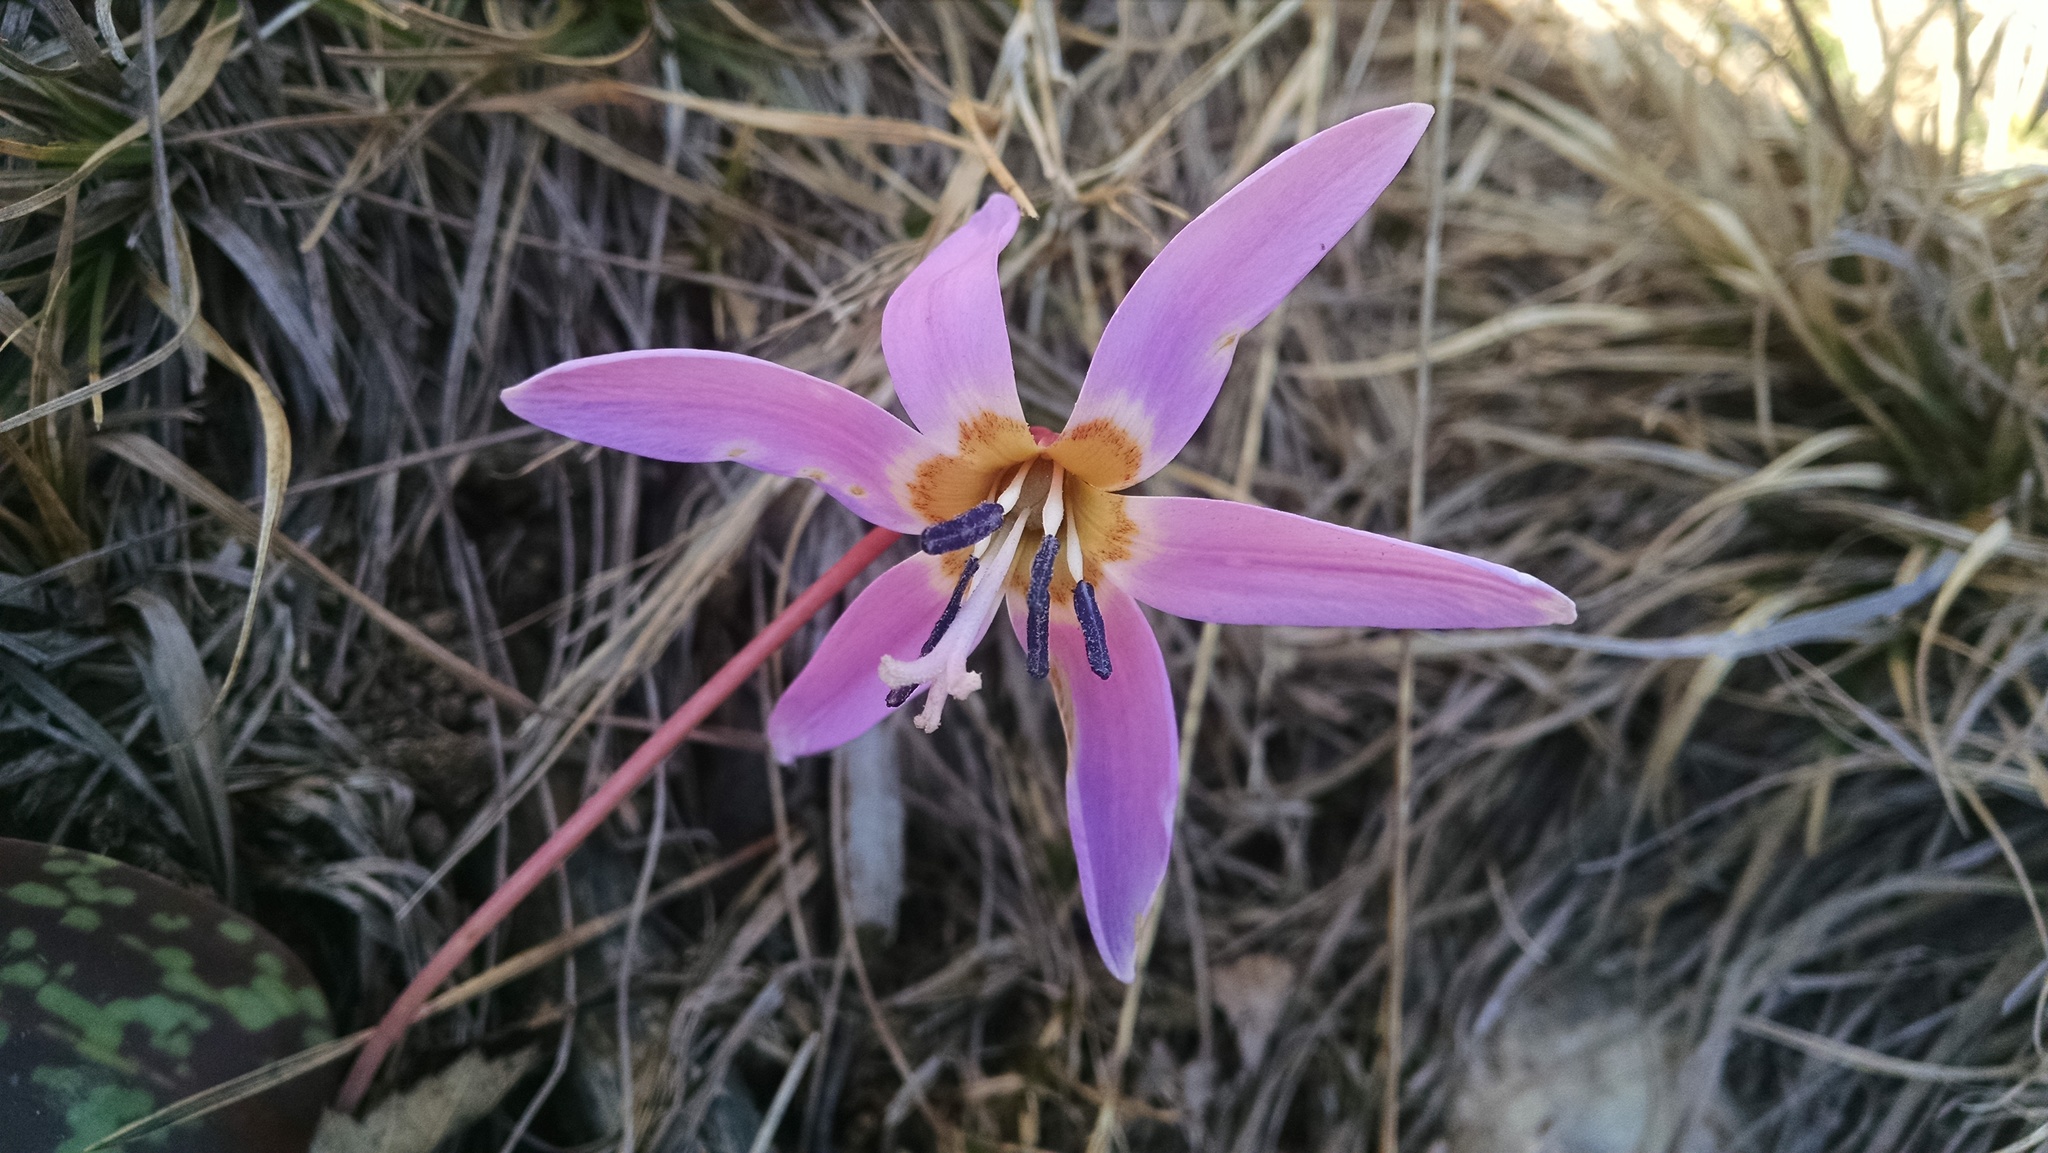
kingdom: Plantae
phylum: Tracheophyta
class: Liliopsida
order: Liliales
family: Liliaceae
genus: Erythronium
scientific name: Erythronium dens-canis
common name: Dog's-tooth-violet
